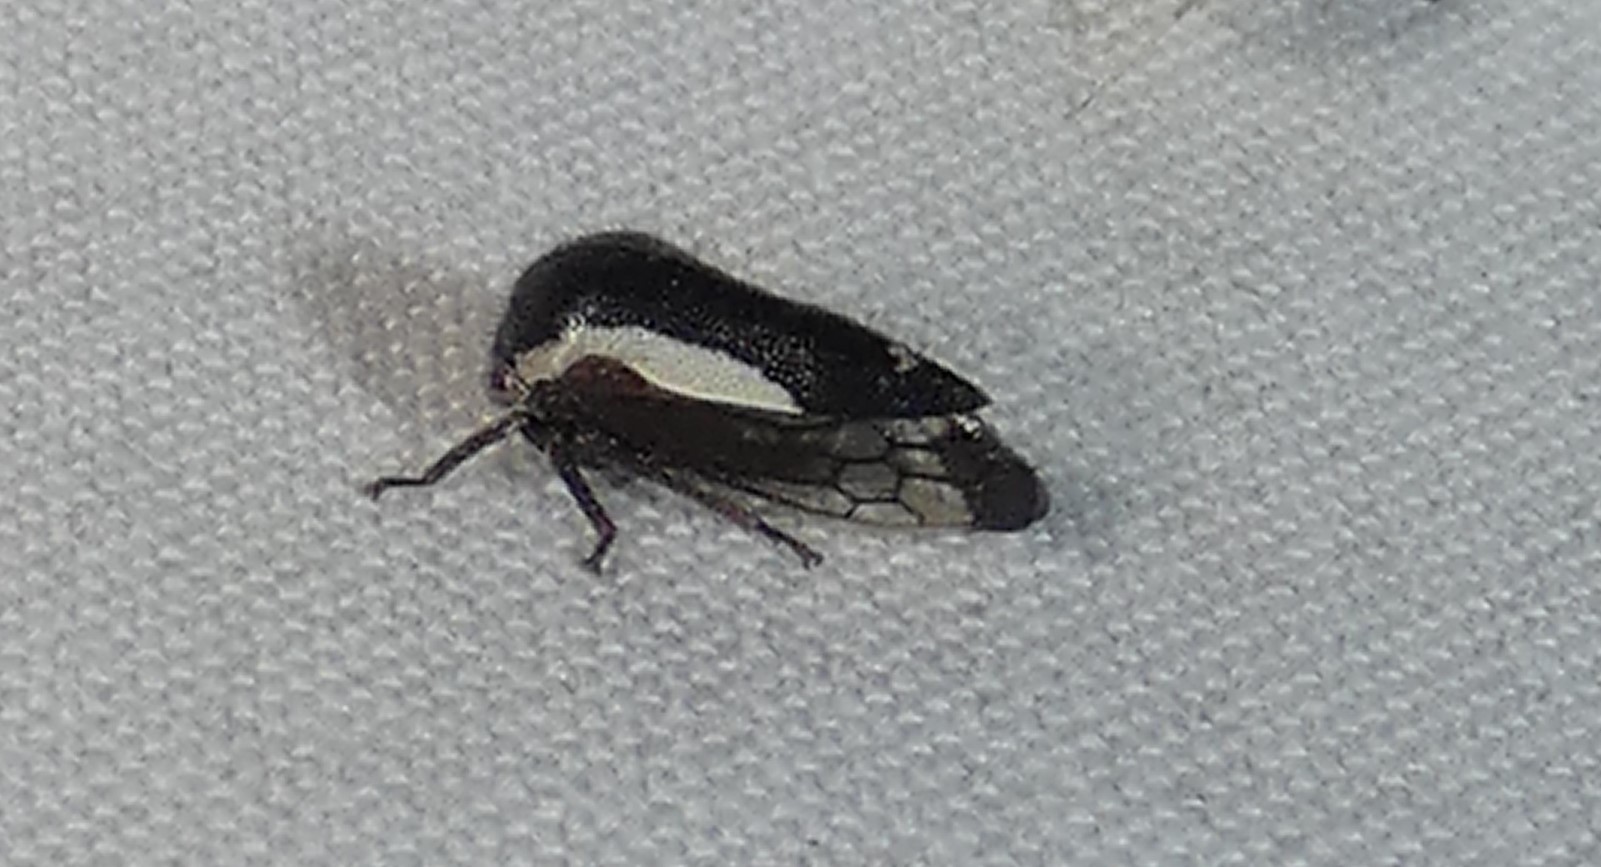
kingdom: Animalia
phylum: Arthropoda
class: Insecta
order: Hemiptera
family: Membracidae
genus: Ophiderma
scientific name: Ophiderma flavicephala
